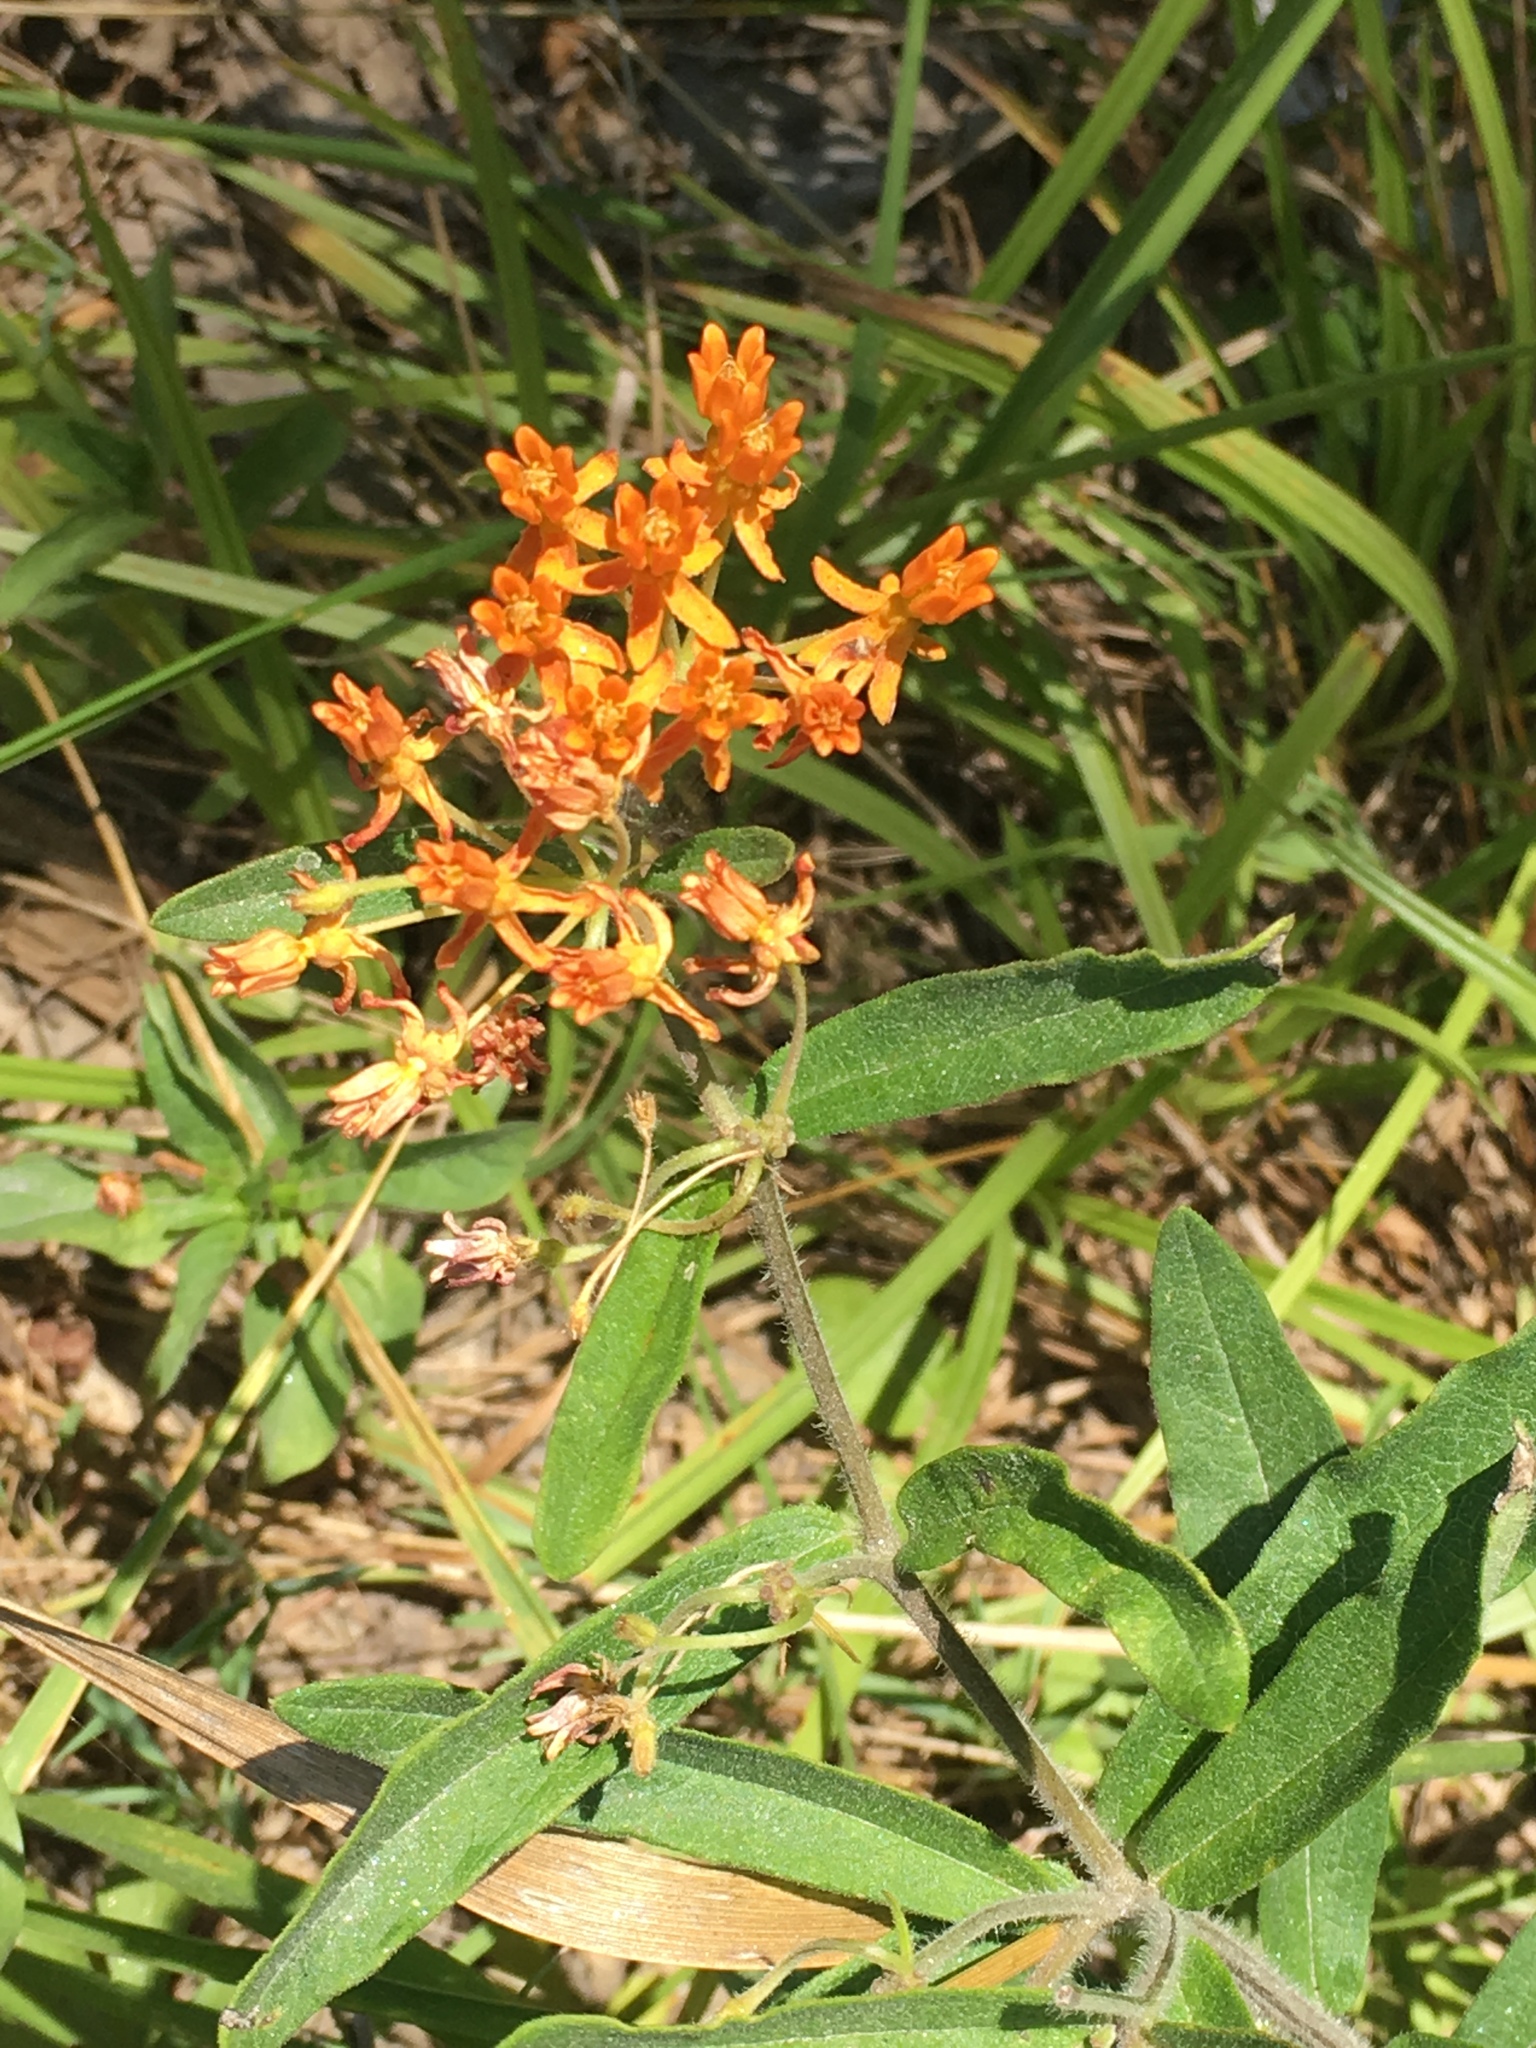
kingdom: Plantae
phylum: Tracheophyta
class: Magnoliopsida
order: Gentianales
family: Apocynaceae
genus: Asclepias
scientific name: Asclepias tuberosa
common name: Butterfly milkweed
